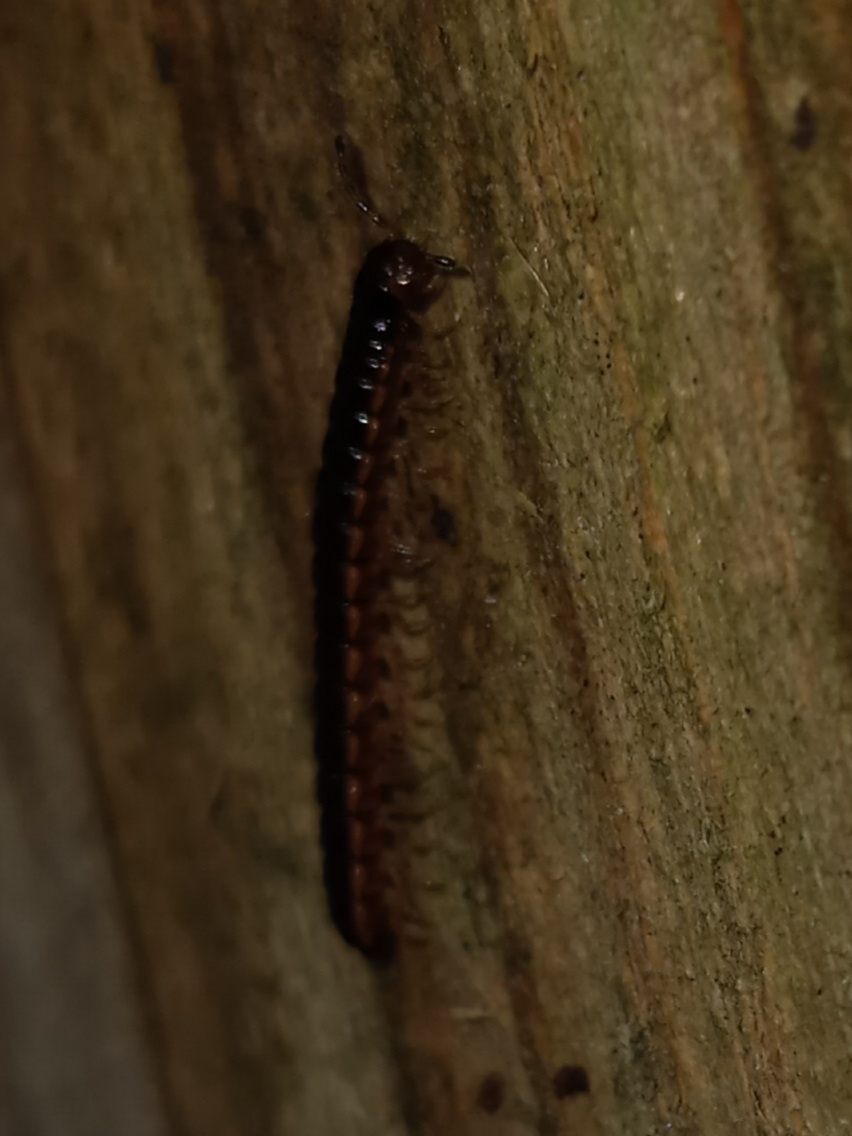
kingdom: Animalia
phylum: Arthropoda
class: Diplopoda
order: Polydesmida
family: Paradoxosomatidae
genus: Oxidus
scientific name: Oxidus gracilis
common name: Greenhouse millipede
